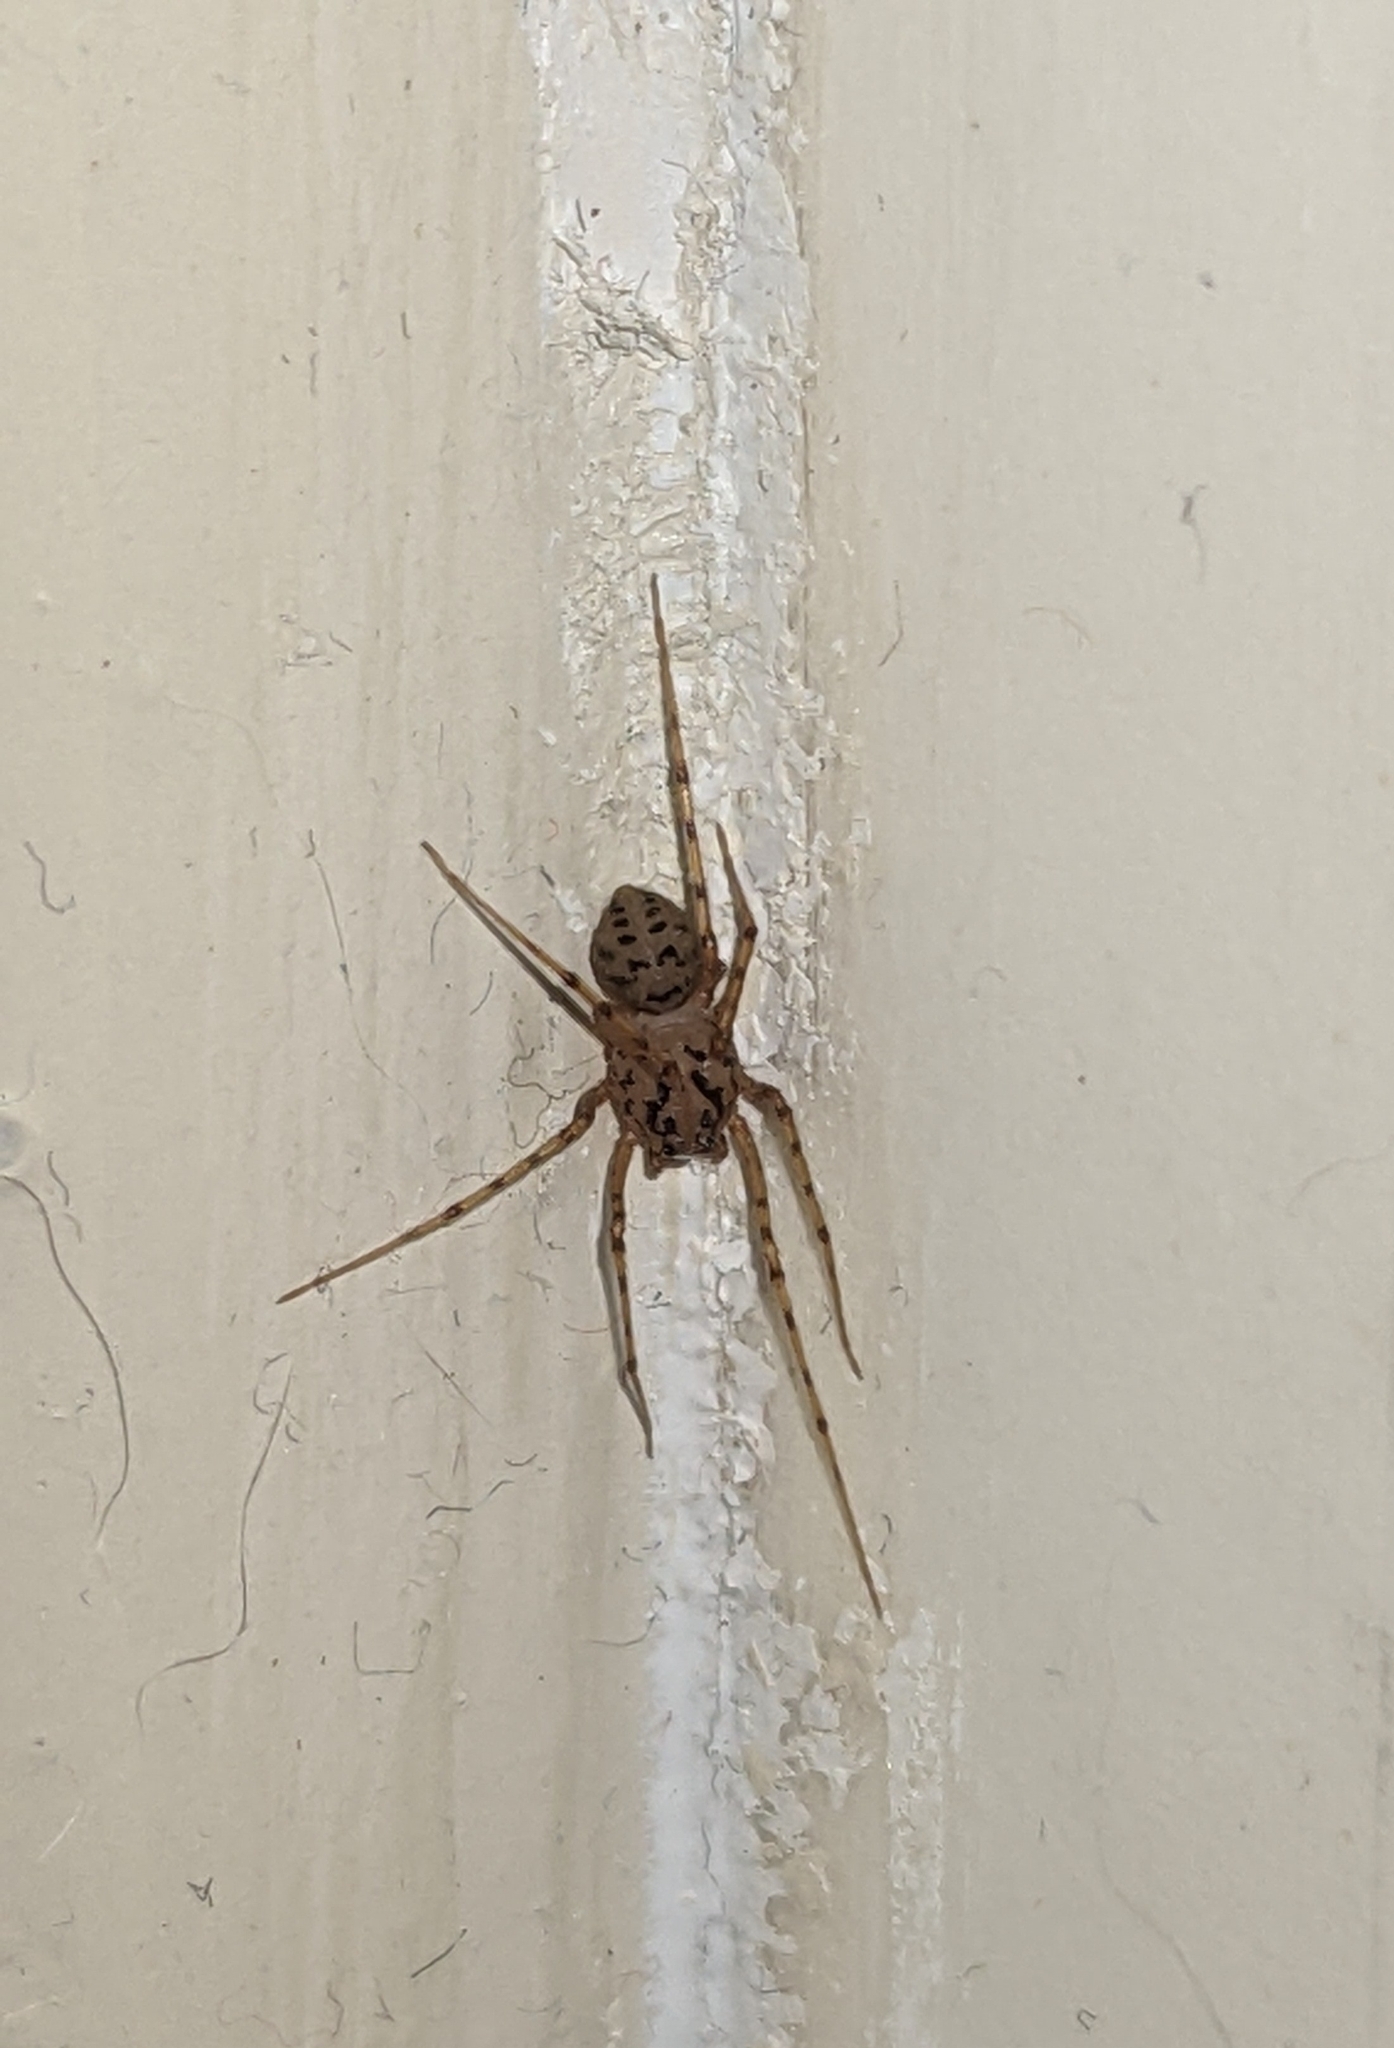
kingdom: Animalia
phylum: Arthropoda
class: Arachnida
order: Araneae
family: Scytodidae
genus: Scytodes
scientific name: Scytodes thoracica
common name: Spitting spider
